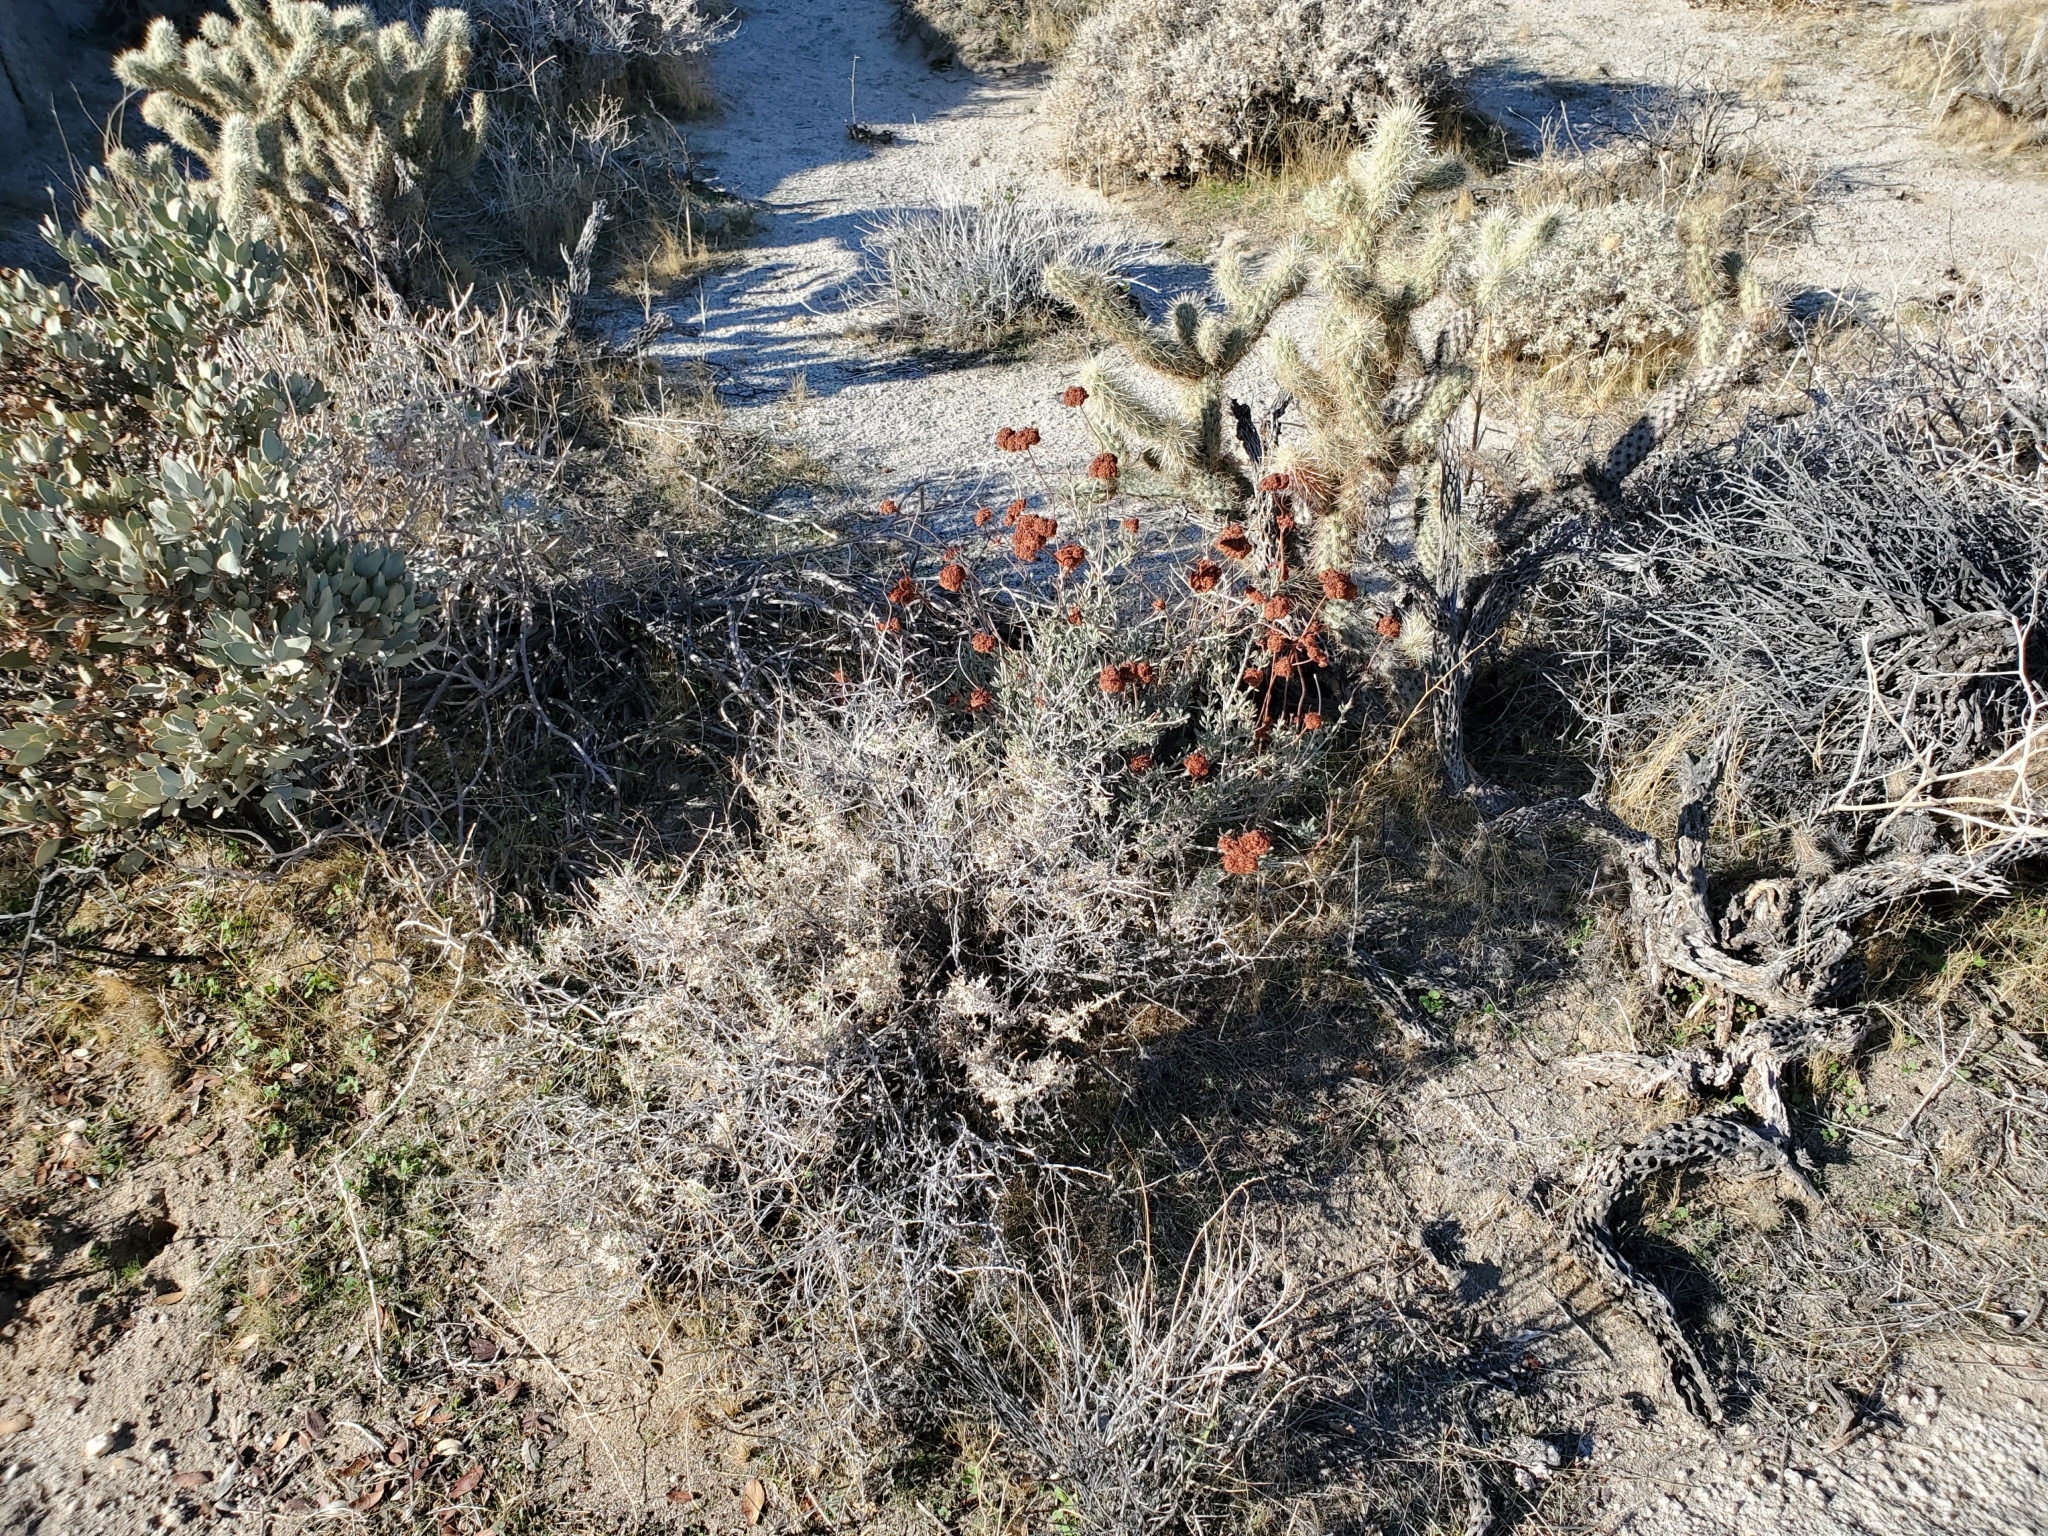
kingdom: Plantae
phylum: Tracheophyta
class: Magnoliopsida
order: Caryophyllales
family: Polygonaceae
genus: Eriogonum
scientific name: Eriogonum fasciculatum
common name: California wild buckwheat
